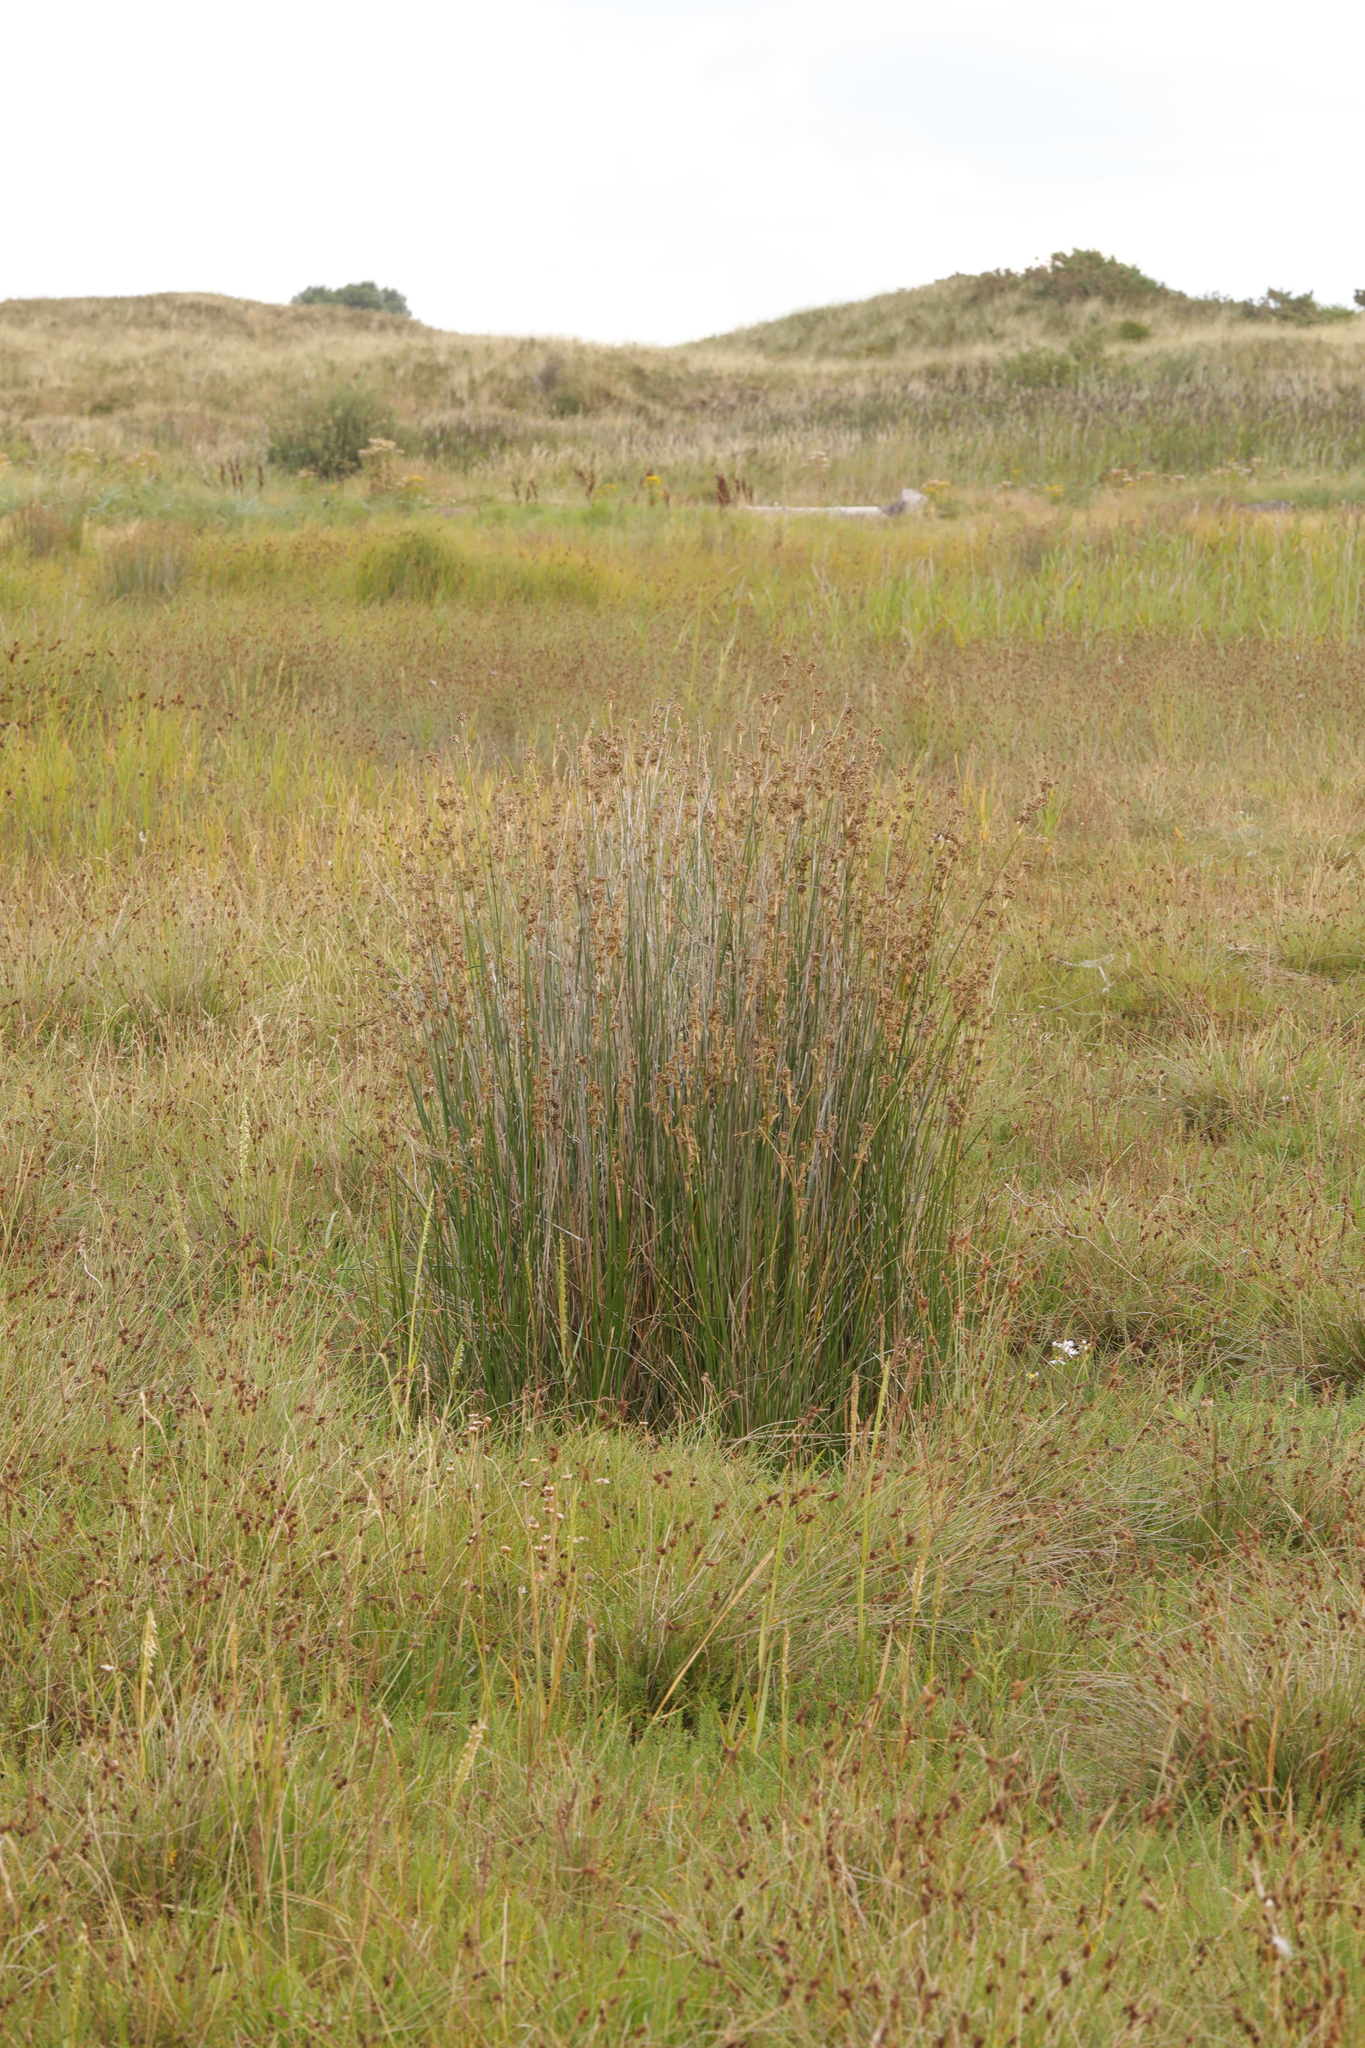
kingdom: Plantae
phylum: Tracheophyta
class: Liliopsida
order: Poales
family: Juncaceae
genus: Juncus
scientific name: Juncus maritimus
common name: Sea rush
